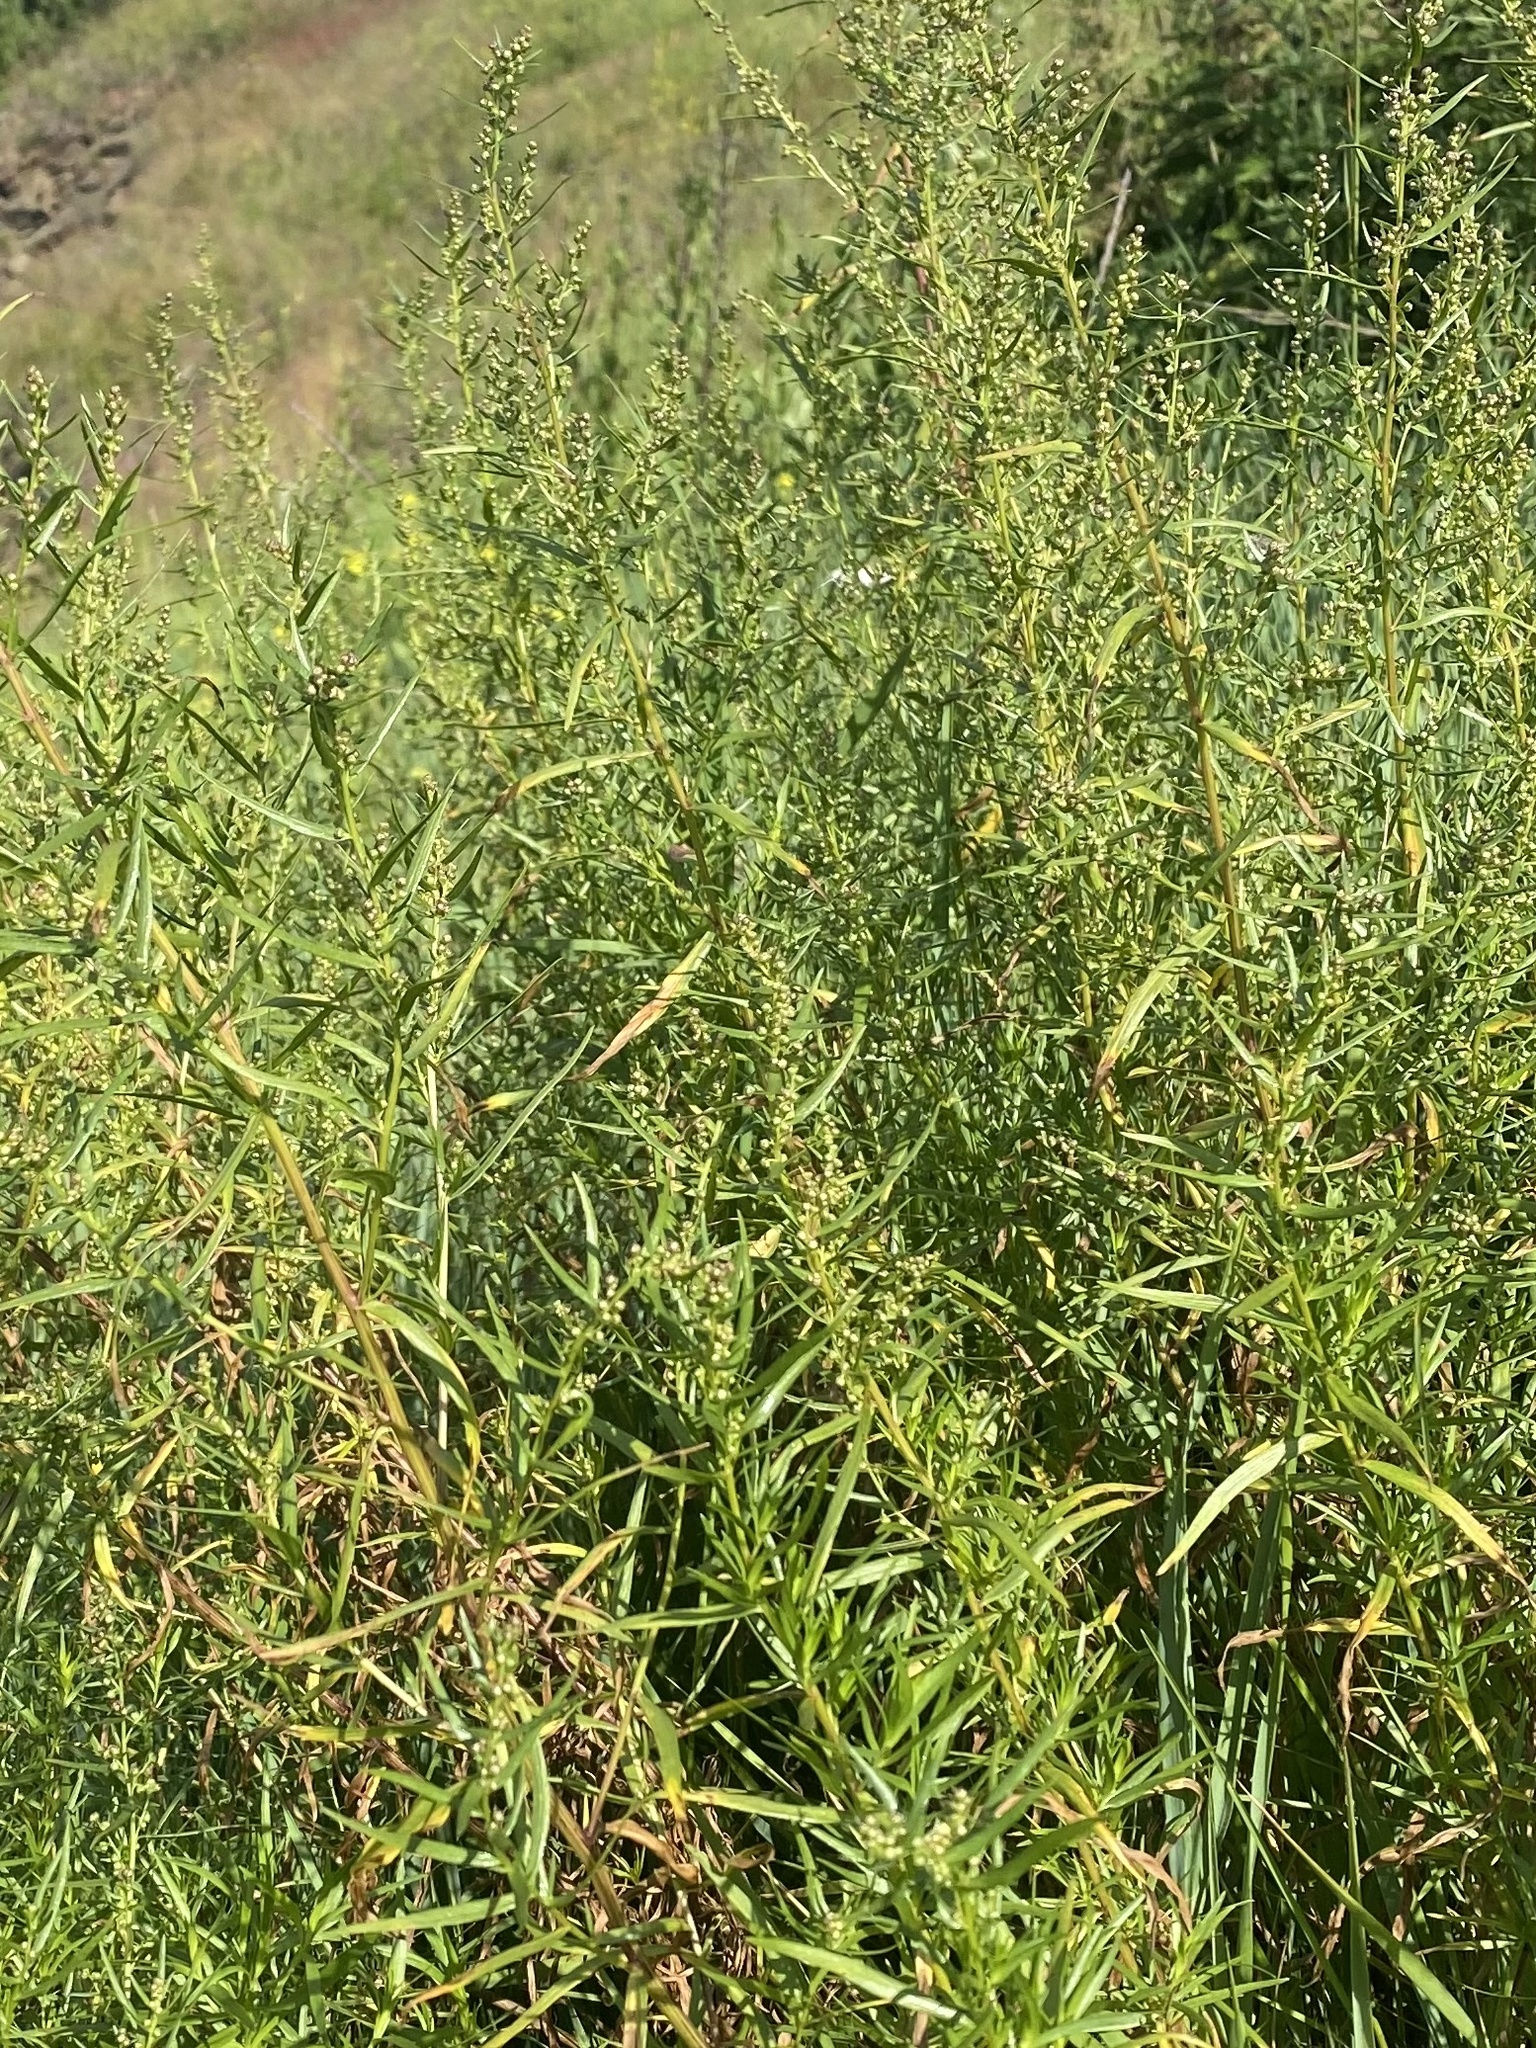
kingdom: Plantae
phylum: Tracheophyta
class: Magnoliopsida
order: Asterales
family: Asteraceae
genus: Artemisia
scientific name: Artemisia dracunculus
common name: Tarragon
